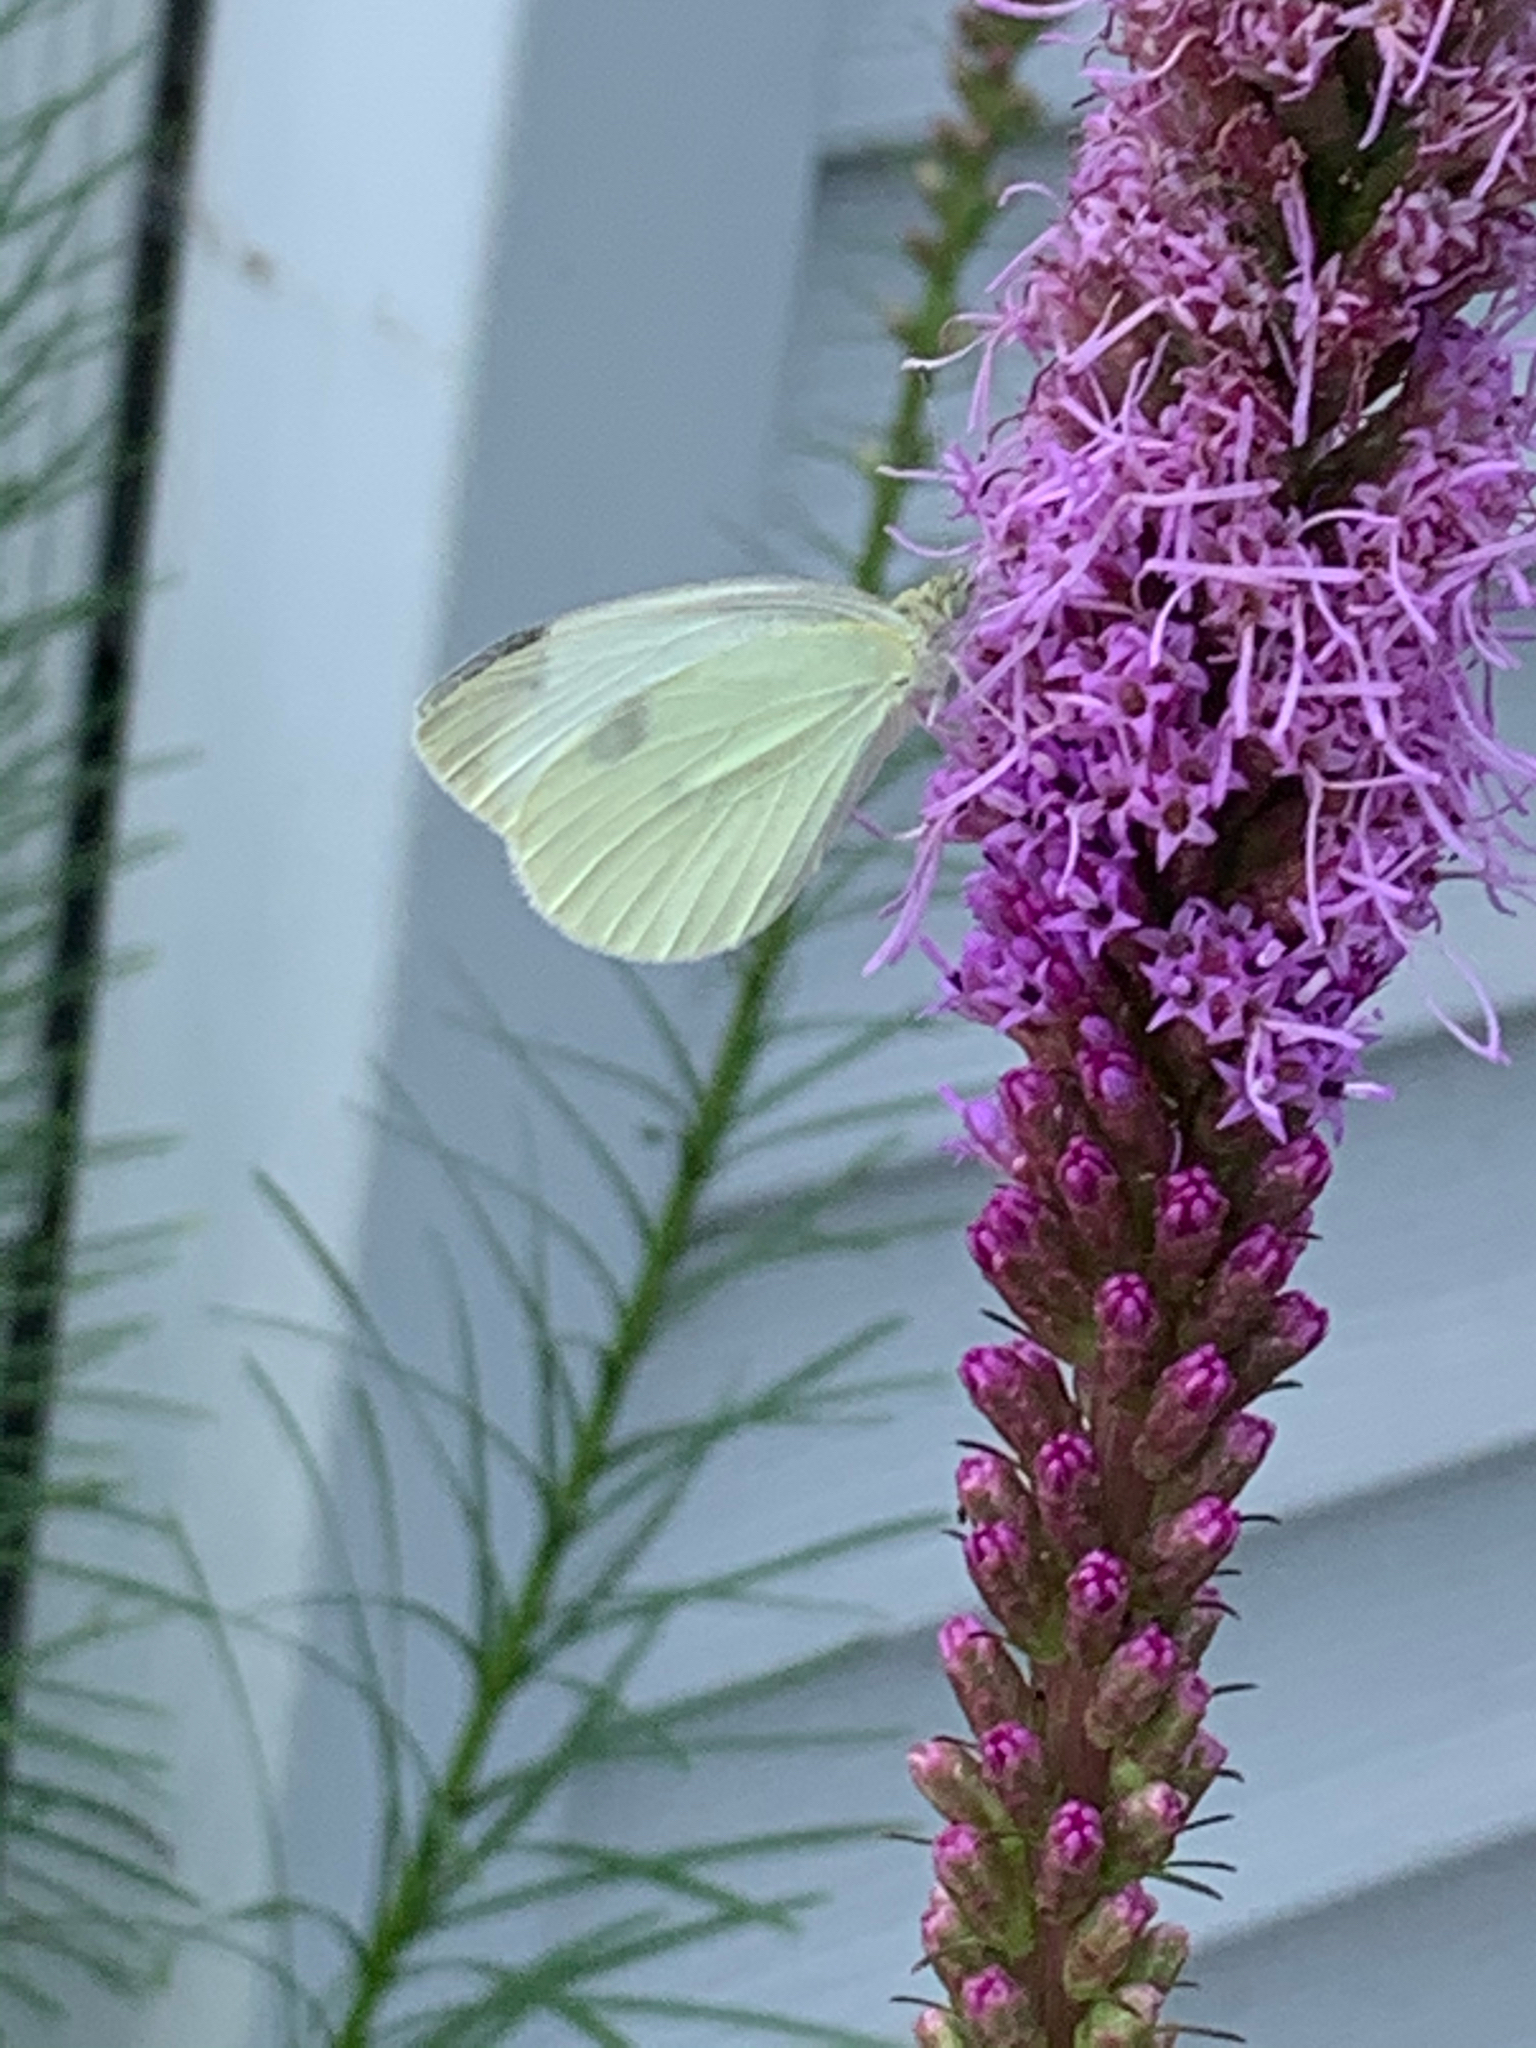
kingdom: Animalia
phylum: Arthropoda
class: Insecta
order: Lepidoptera
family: Pieridae
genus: Pieris
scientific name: Pieris rapae
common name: Small white
